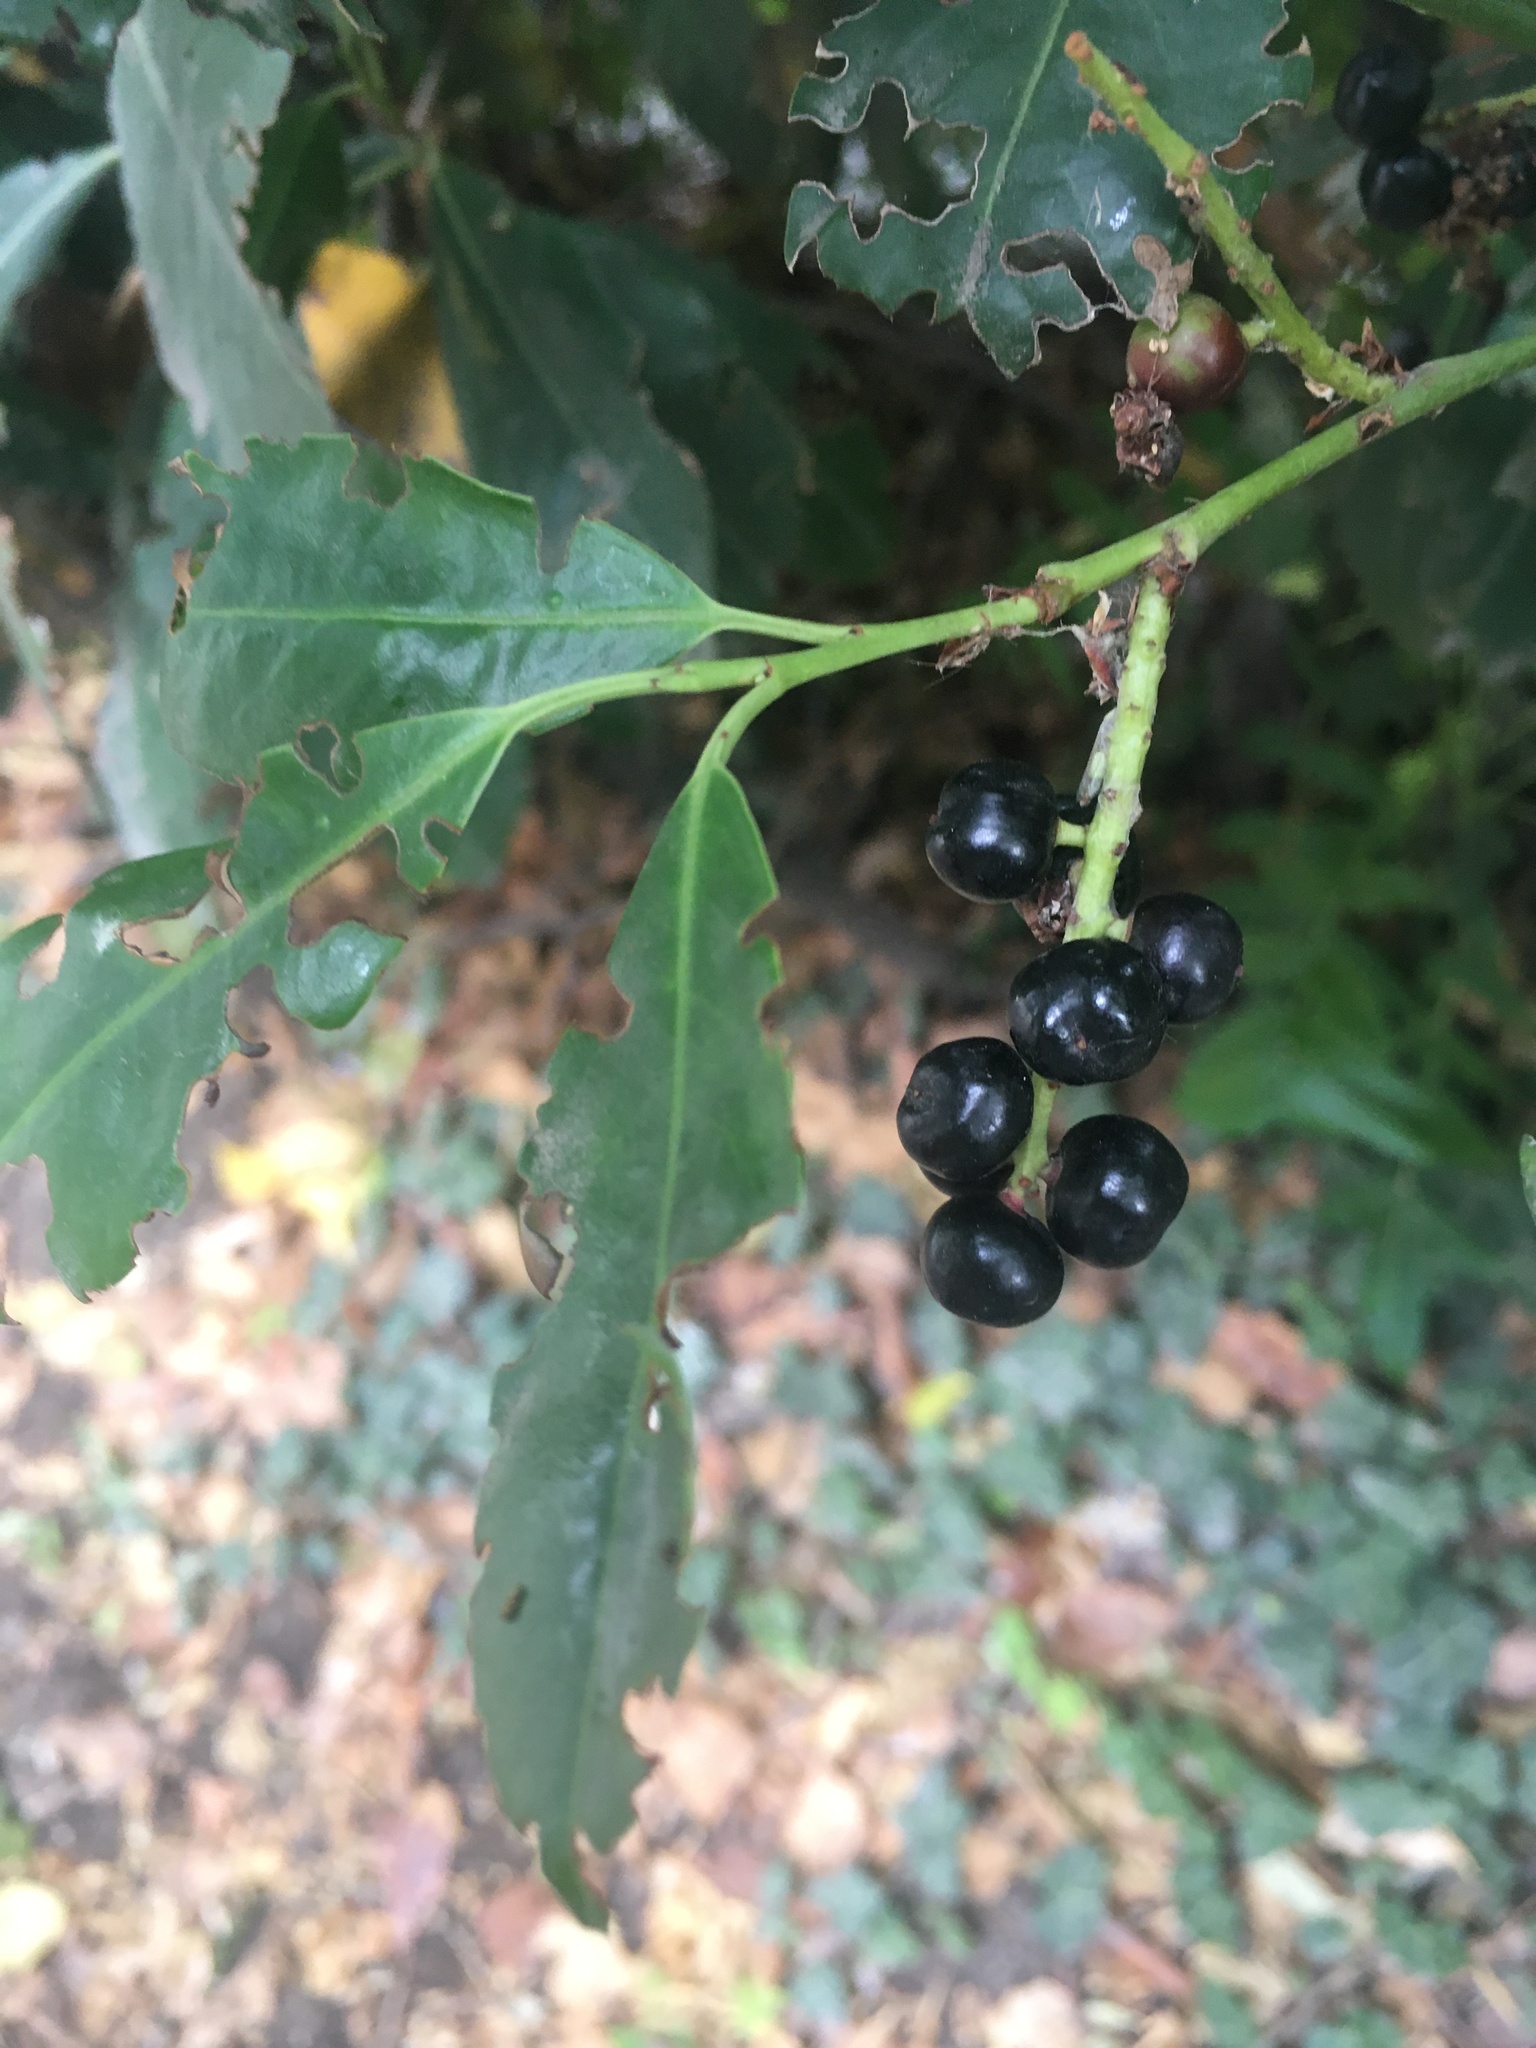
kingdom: Plantae
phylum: Tracheophyta
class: Magnoliopsida
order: Rosales
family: Rosaceae
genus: Prunus
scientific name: Prunus laurocerasus
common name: Cherry laurel
